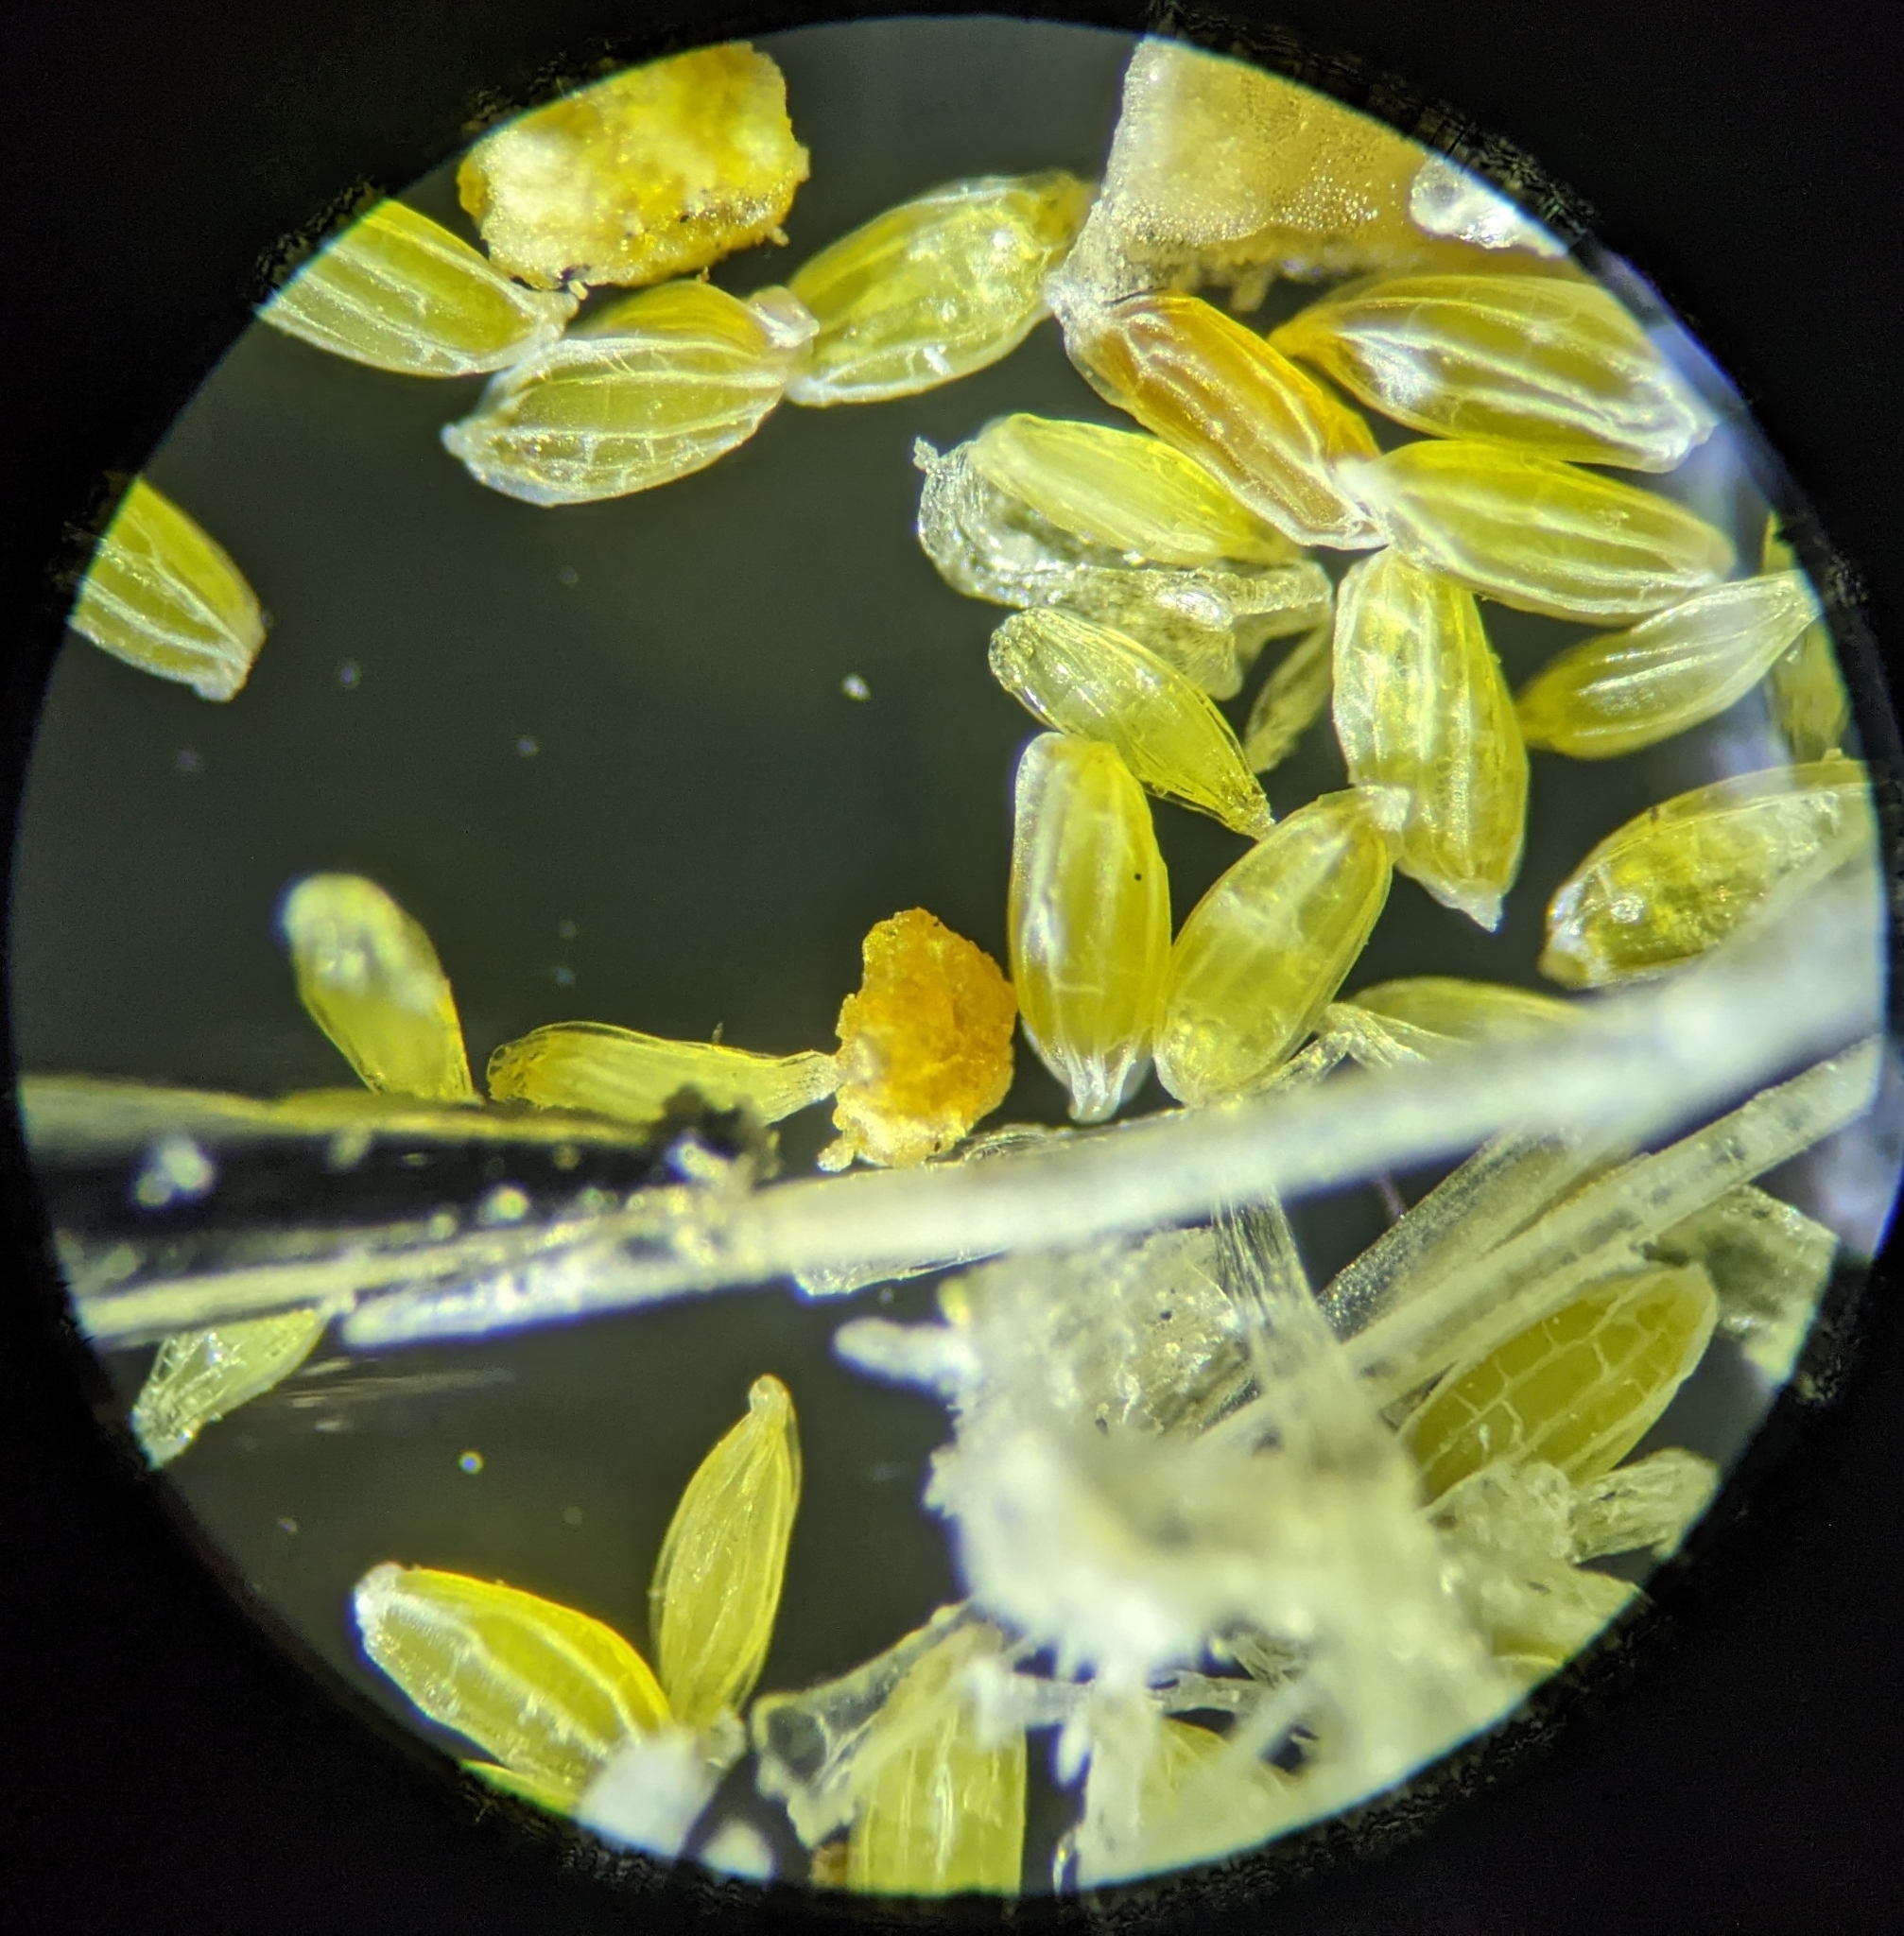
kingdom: Plantae
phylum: Tracheophyta
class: Magnoliopsida
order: Cornales
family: Loasaceae
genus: Eucnide
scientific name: Eucnide urens
